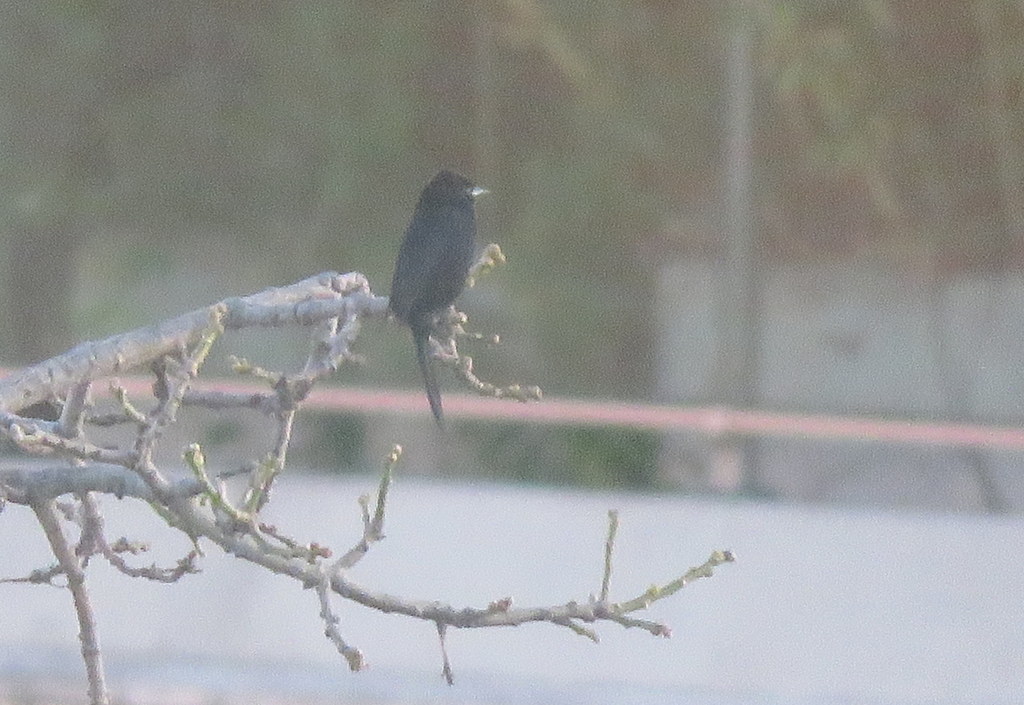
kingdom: Animalia
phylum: Chordata
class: Aves
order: Passeriformes
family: Icteridae
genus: Icterus
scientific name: Icterus cayanensis
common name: Epaulet oriole
